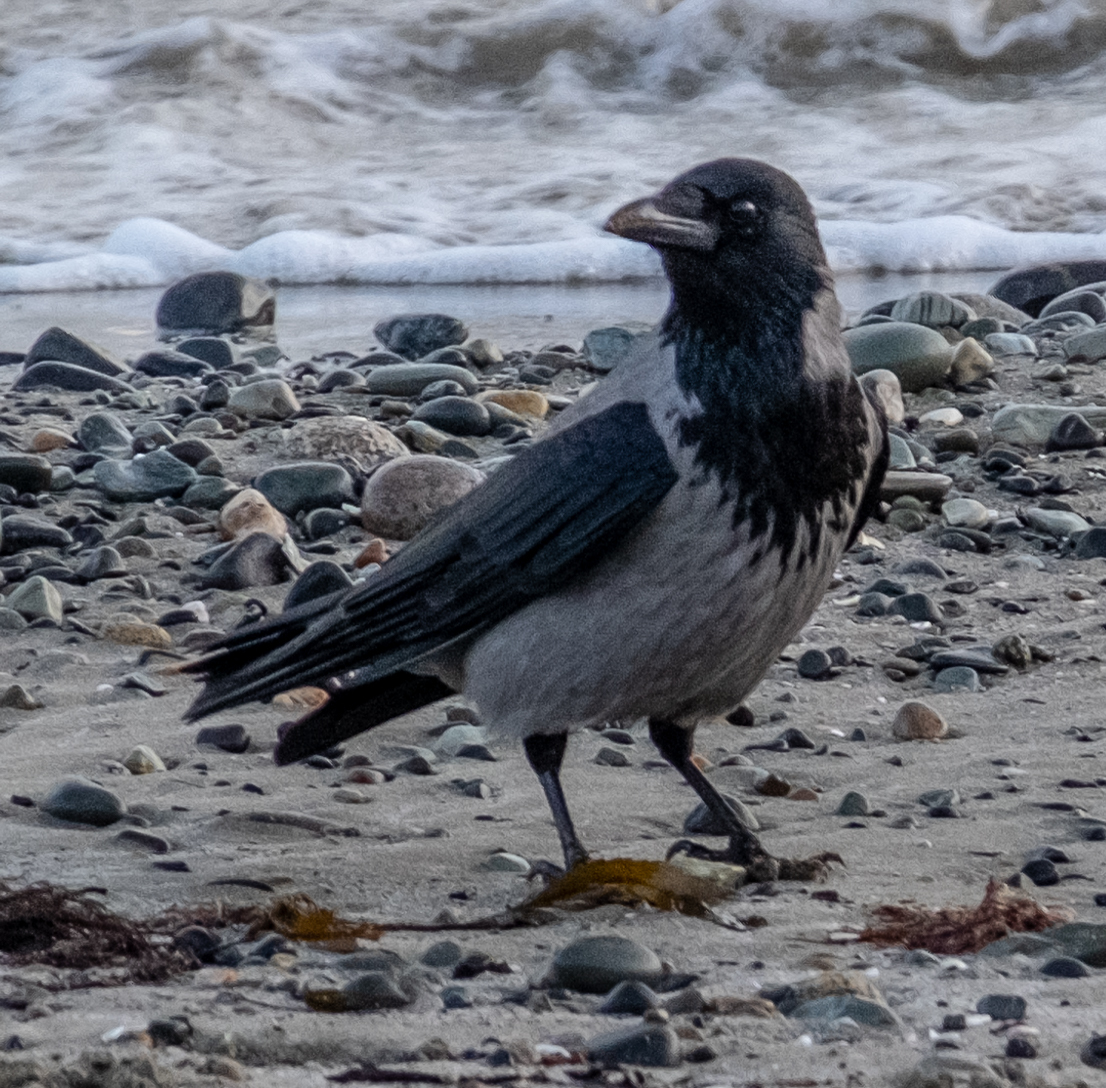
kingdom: Animalia
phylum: Chordata
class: Aves
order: Passeriformes
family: Corvidae
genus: Corvus
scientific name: Corvus cornix
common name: Hooded crow
